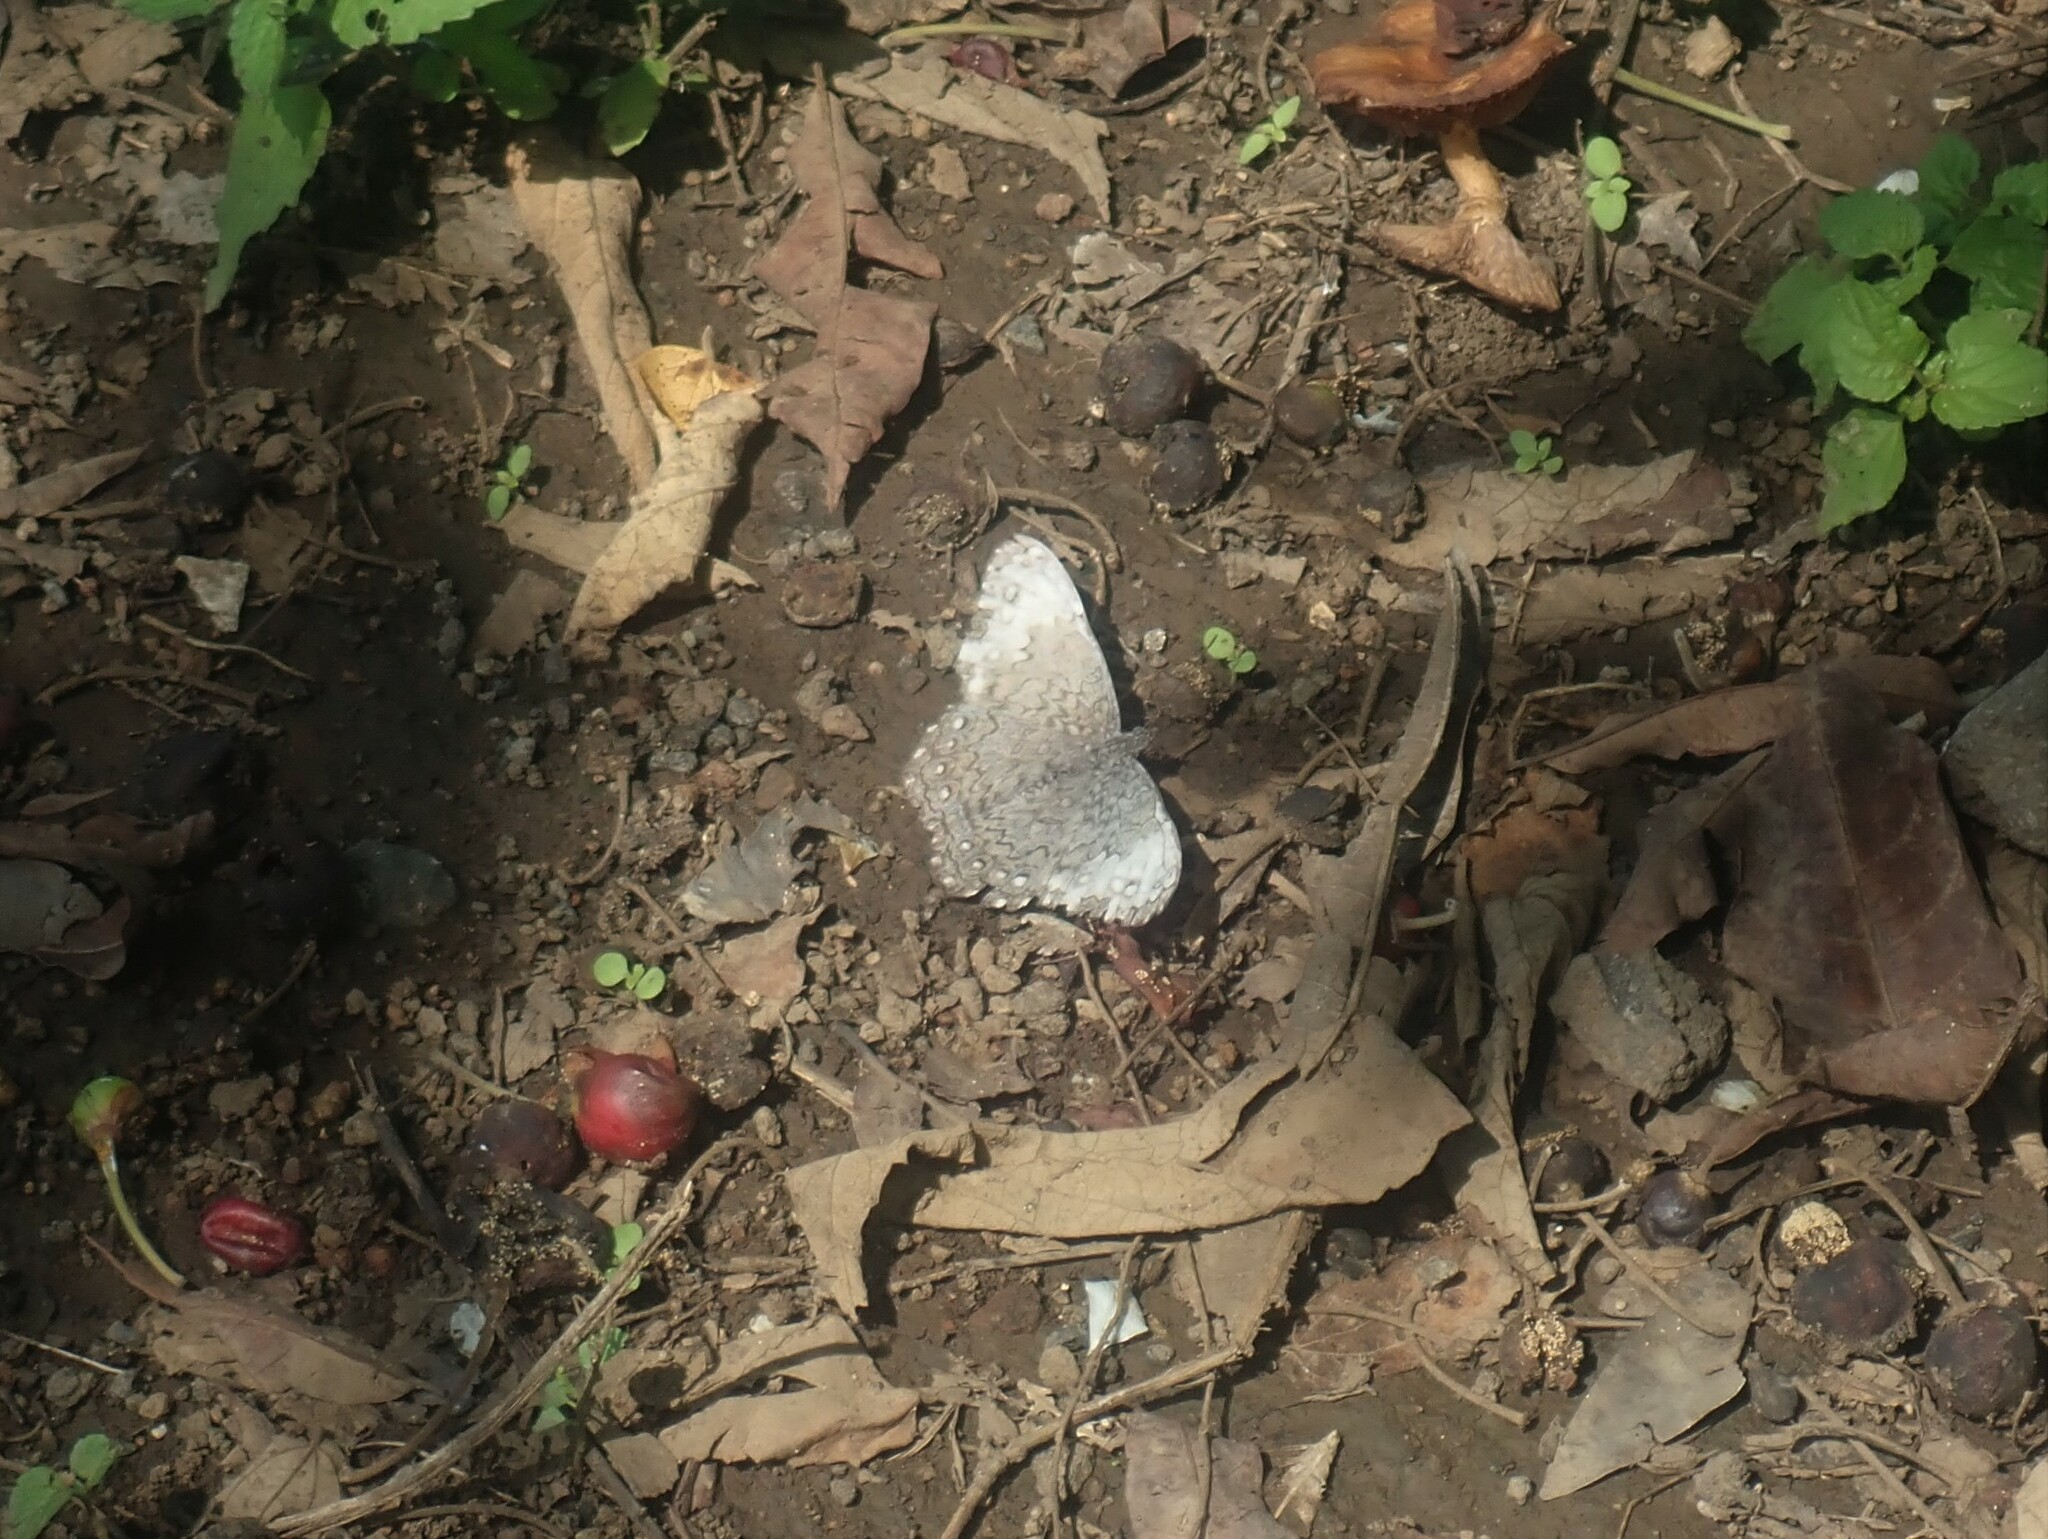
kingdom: Animalia
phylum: Arthropoda
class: Insecta
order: Lepidoptera
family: Nymphalidae
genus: Hamadryas
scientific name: Hamadryas glauconome
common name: Glaucous cracker
